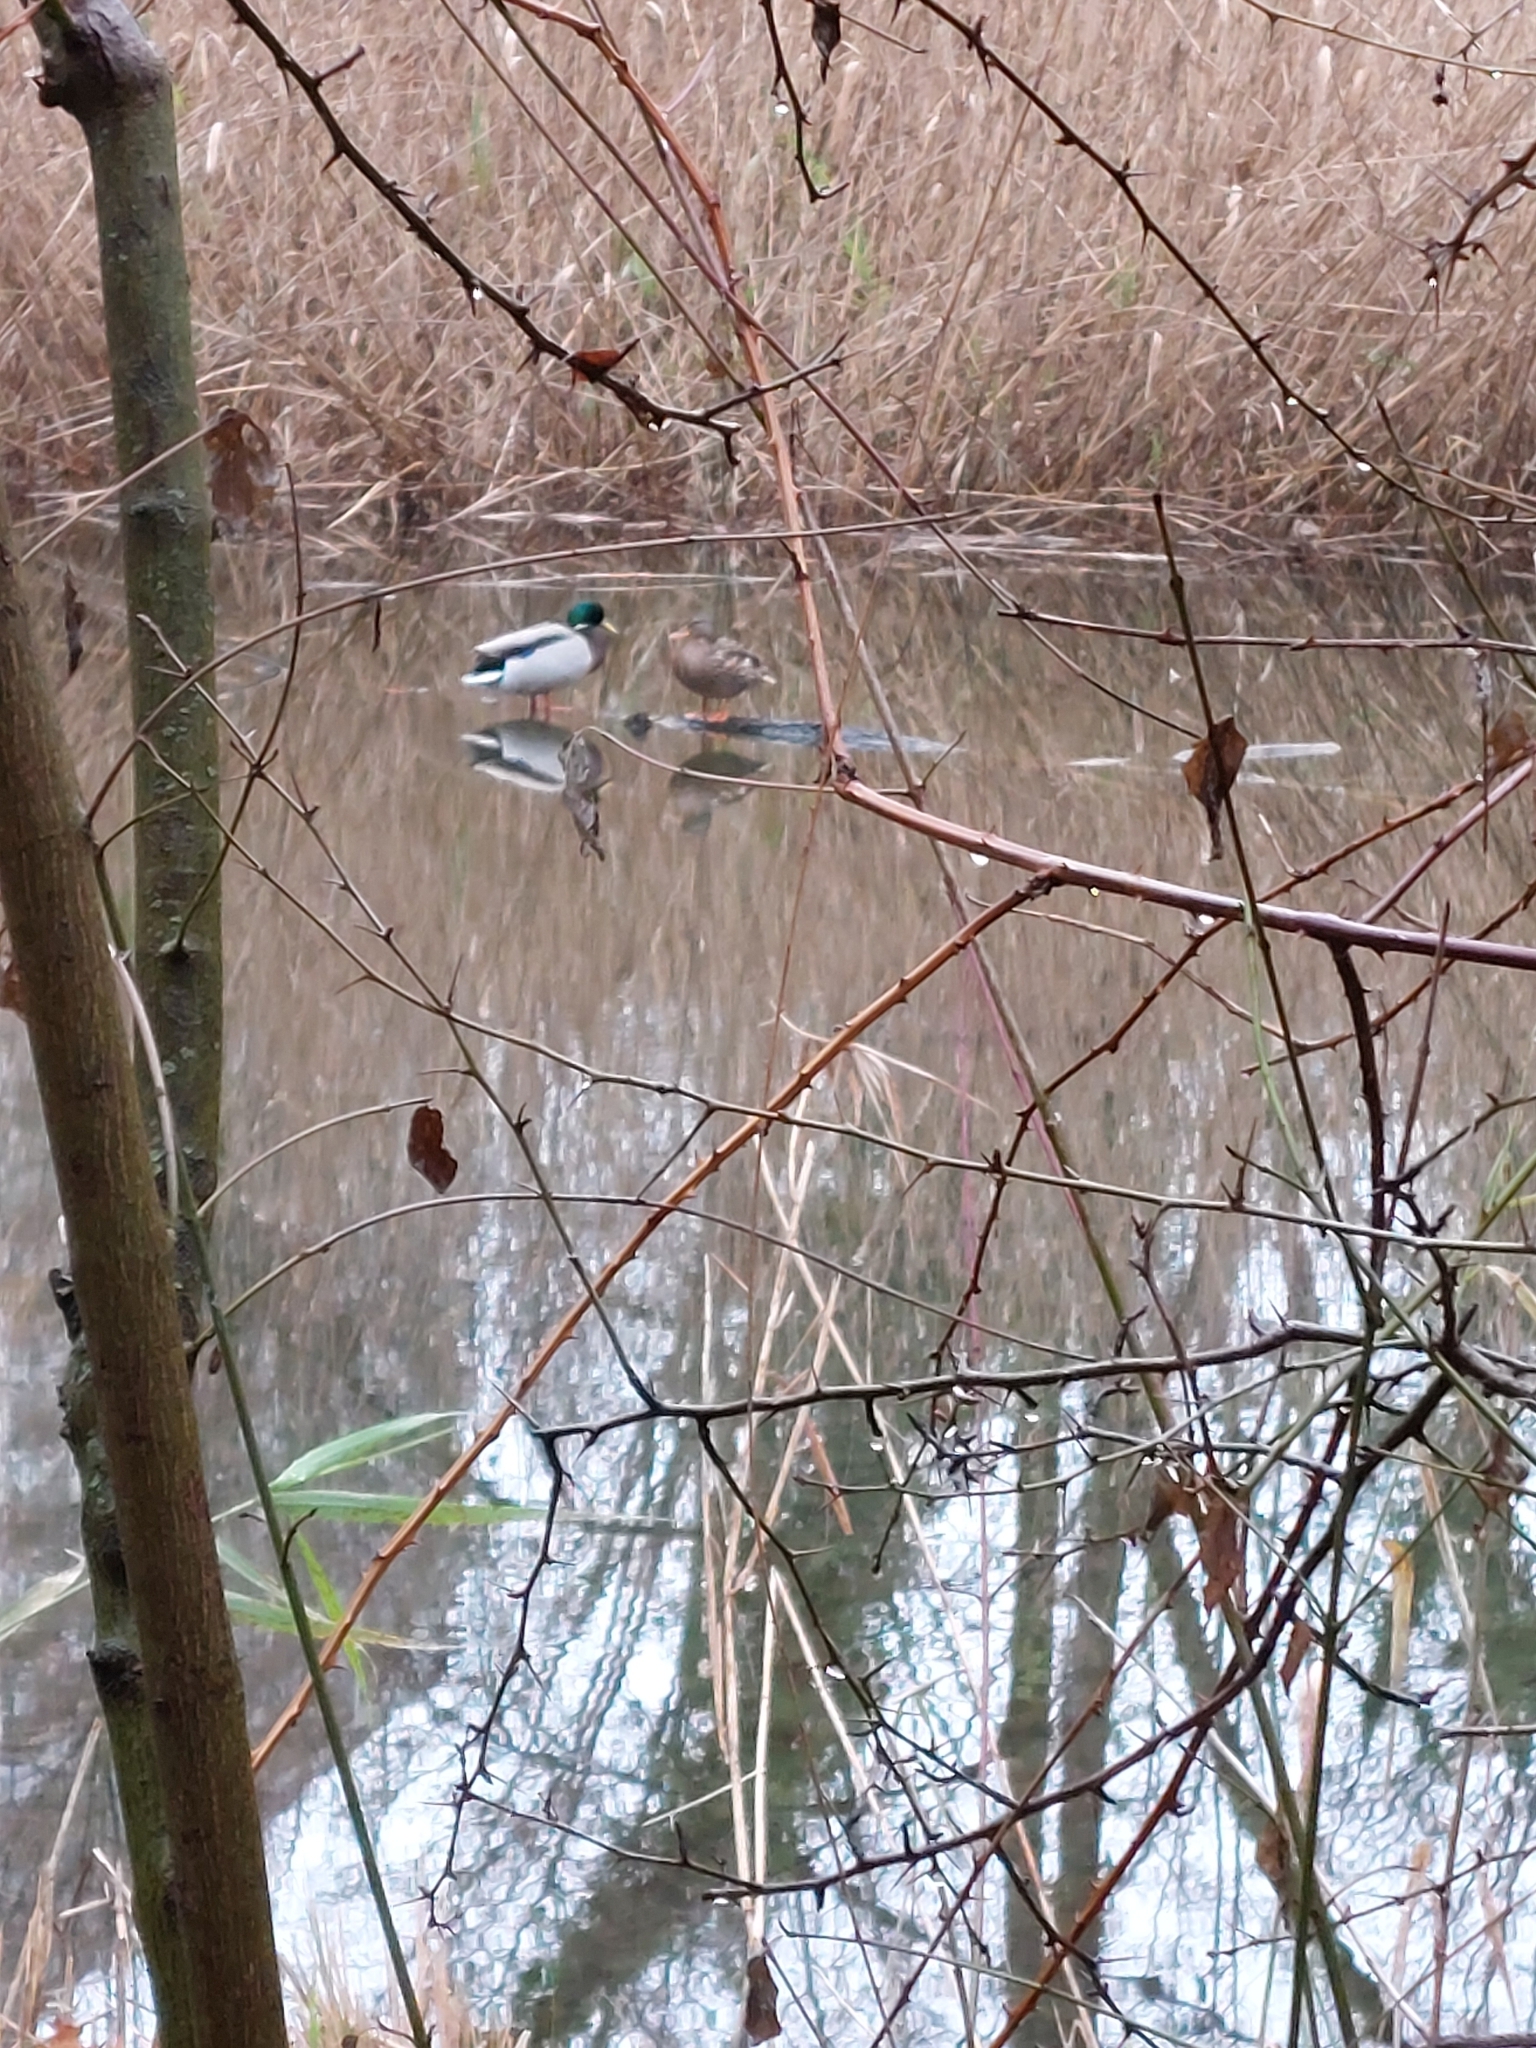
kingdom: Animalia
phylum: Chordata
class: Aves
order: Anseriformes
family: Anatidae
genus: Anas
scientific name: Anas platyrhynchos
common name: Mallard
